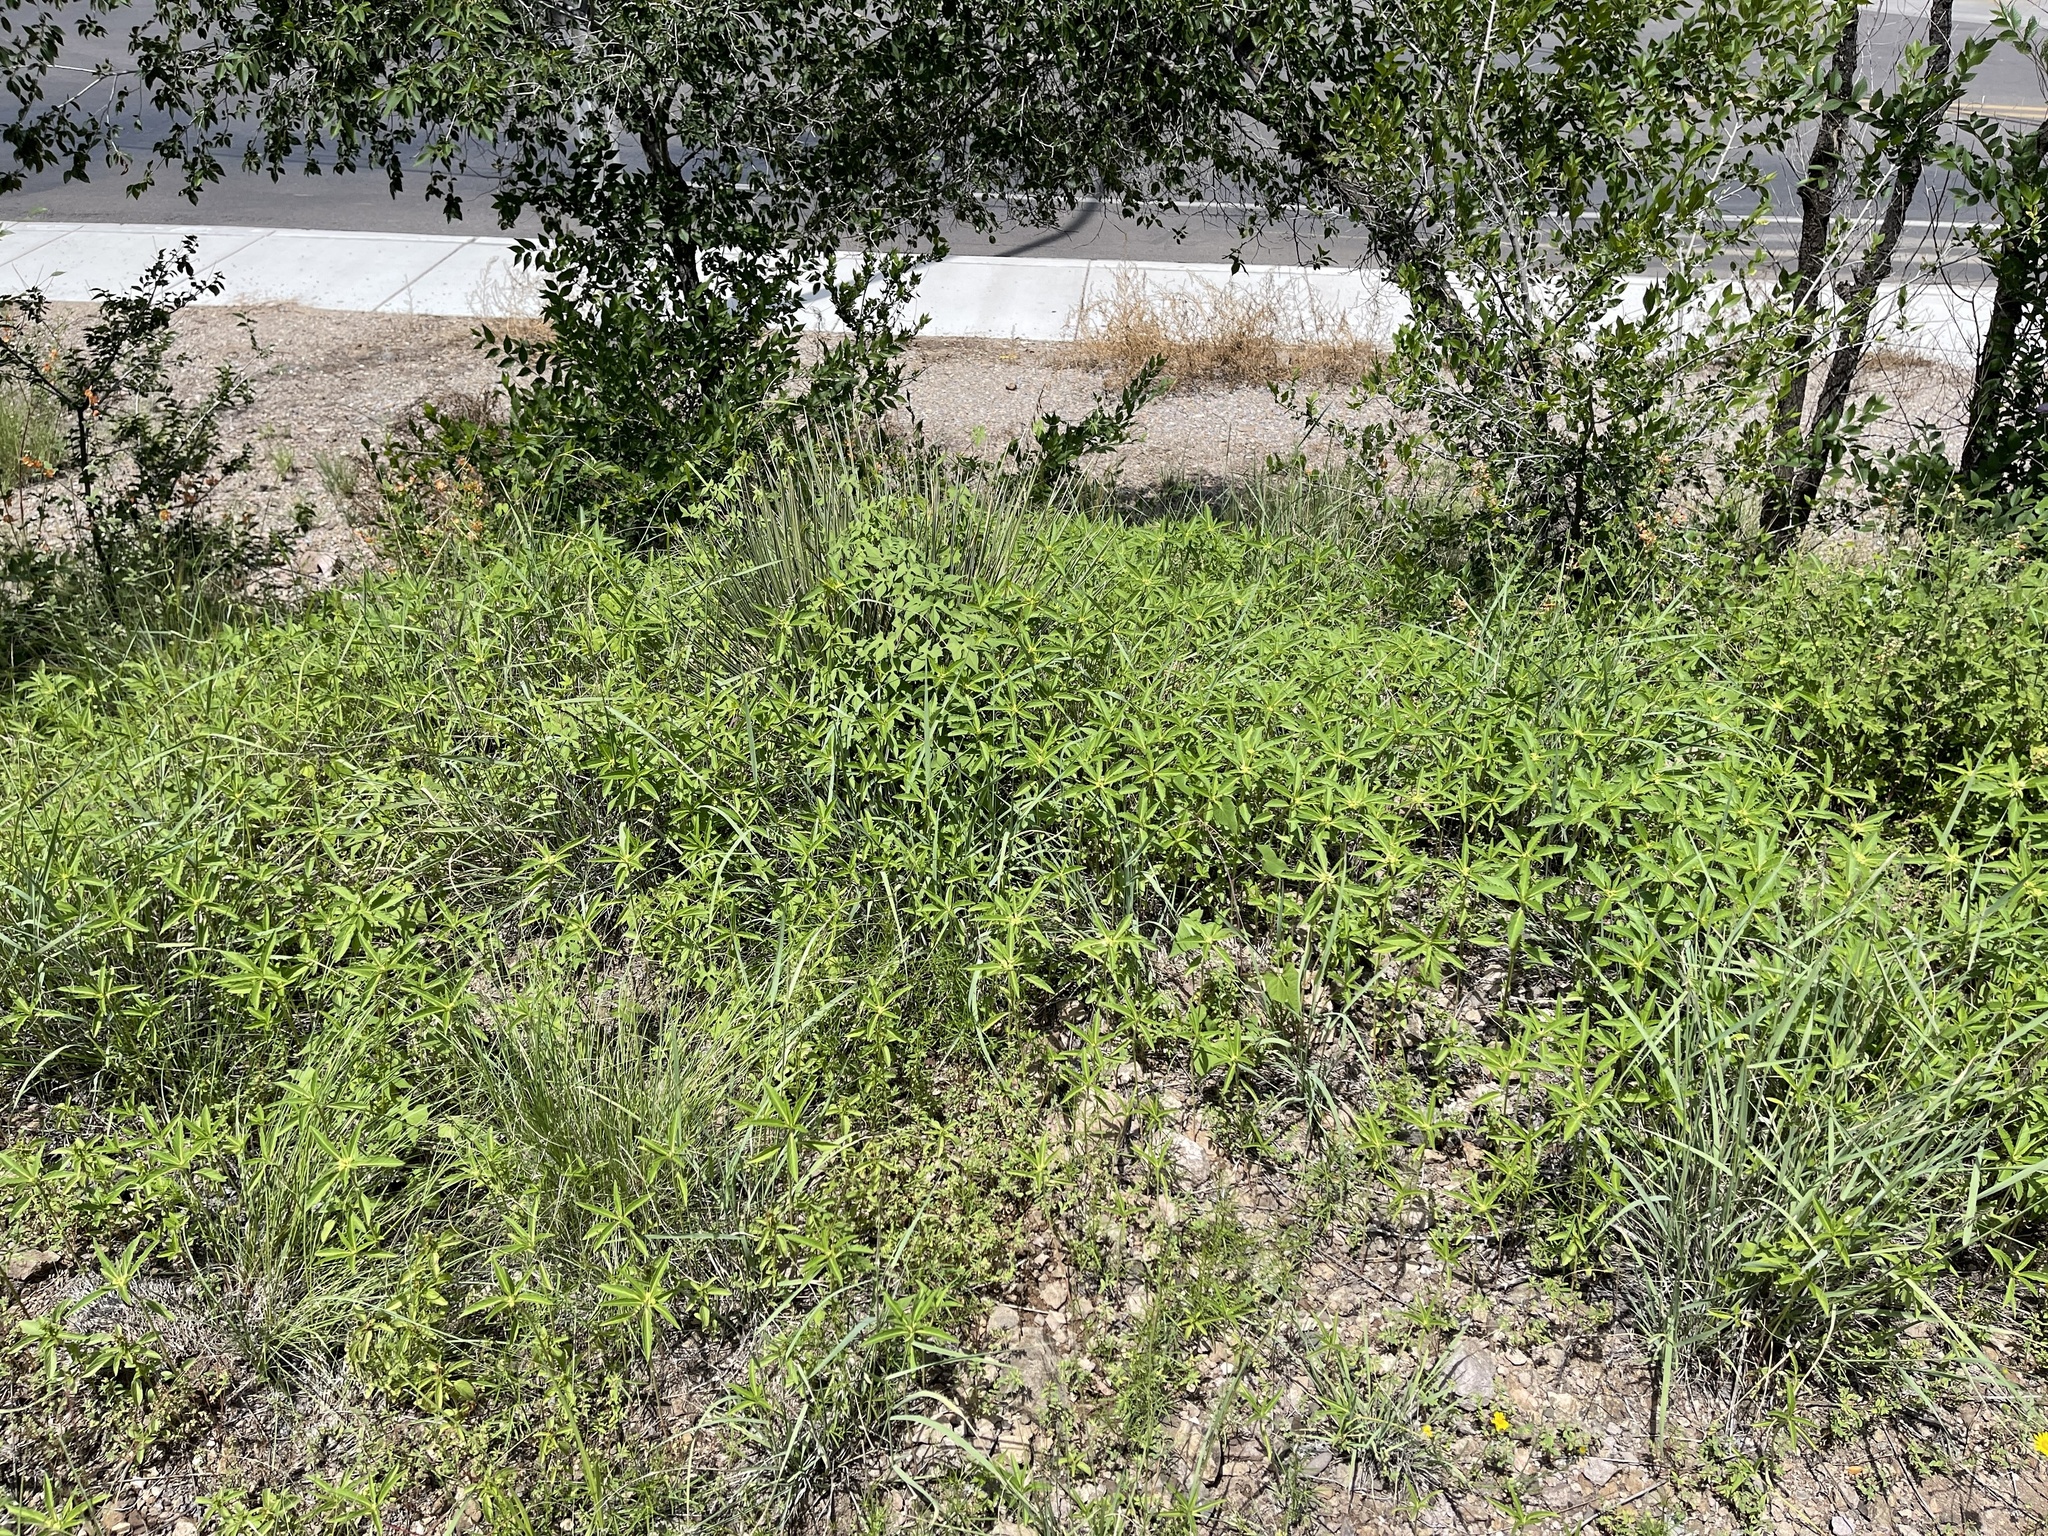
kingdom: Plantae
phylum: Tracheophyta
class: Magnoliopsida
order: Malpighiales
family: Euphorbiaceae
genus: Euphorbia
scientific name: Euphorbia davidii
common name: David's spurge
